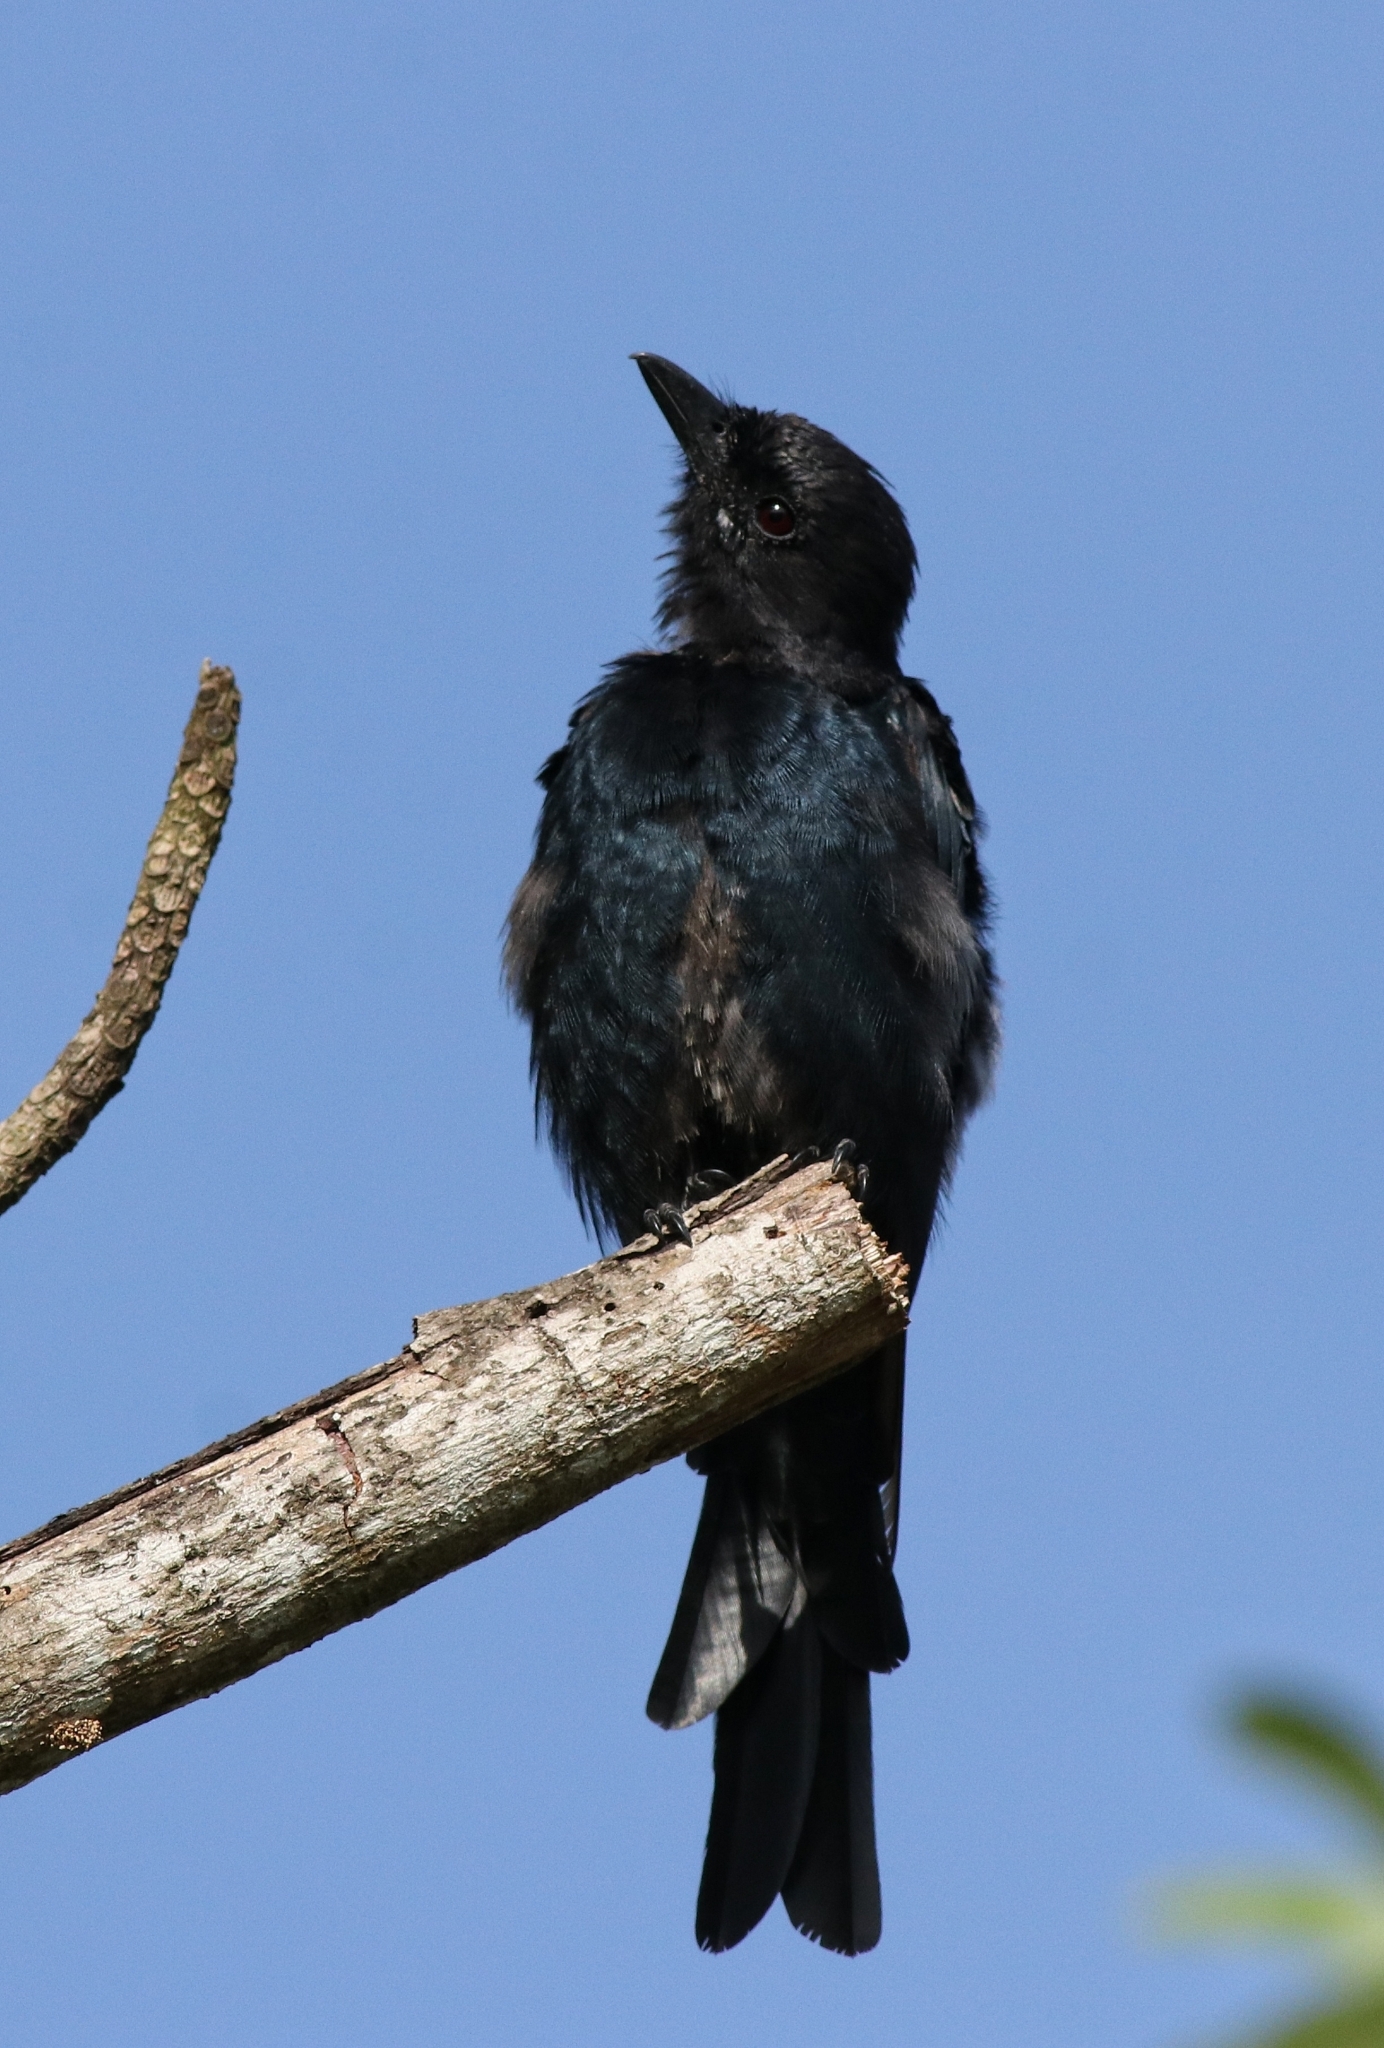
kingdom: Animalia
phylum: Chordata
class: Aves
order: Passeriformes
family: Dicruridae
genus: Dicrurus
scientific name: Dicrurus macrocercus
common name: Black drongo
